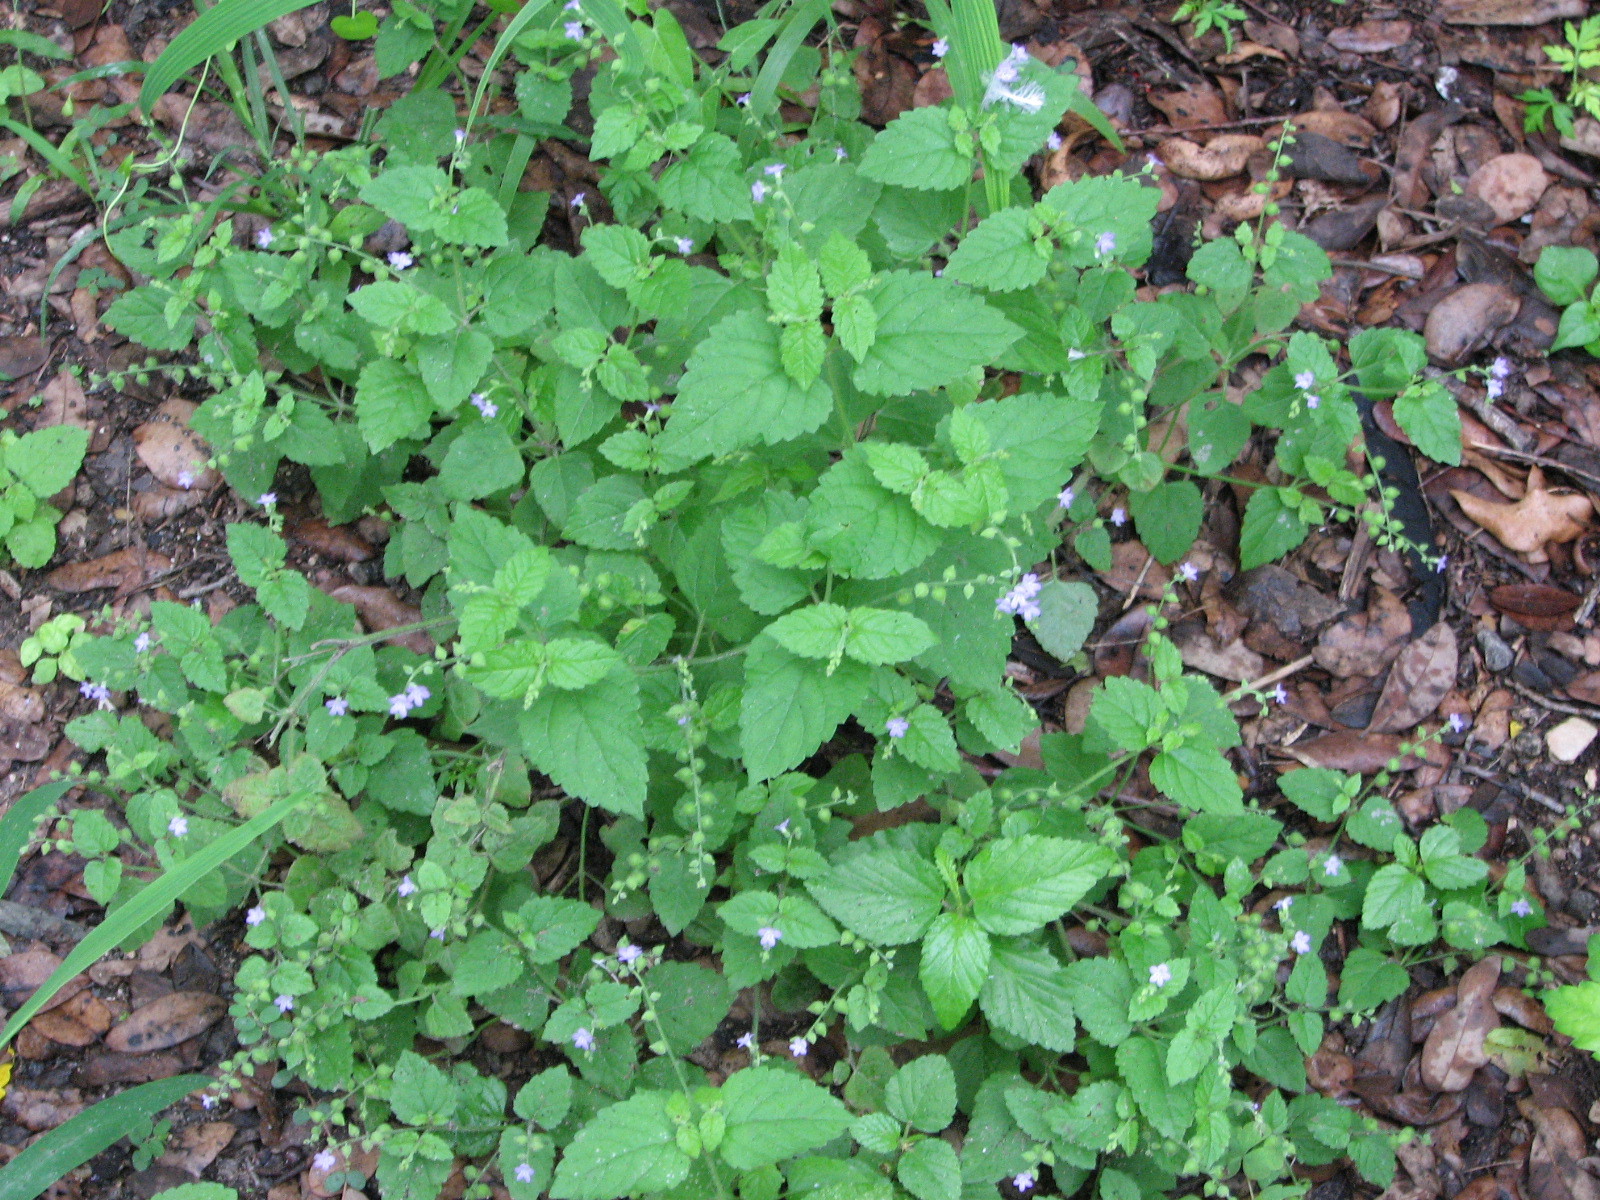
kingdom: Plantae
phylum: Tracheophyta
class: Magnoliopsida
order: Lamiales
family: Verbenaceae
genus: Priva
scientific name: Priva lappulacea
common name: Fasten-'pon-coat
